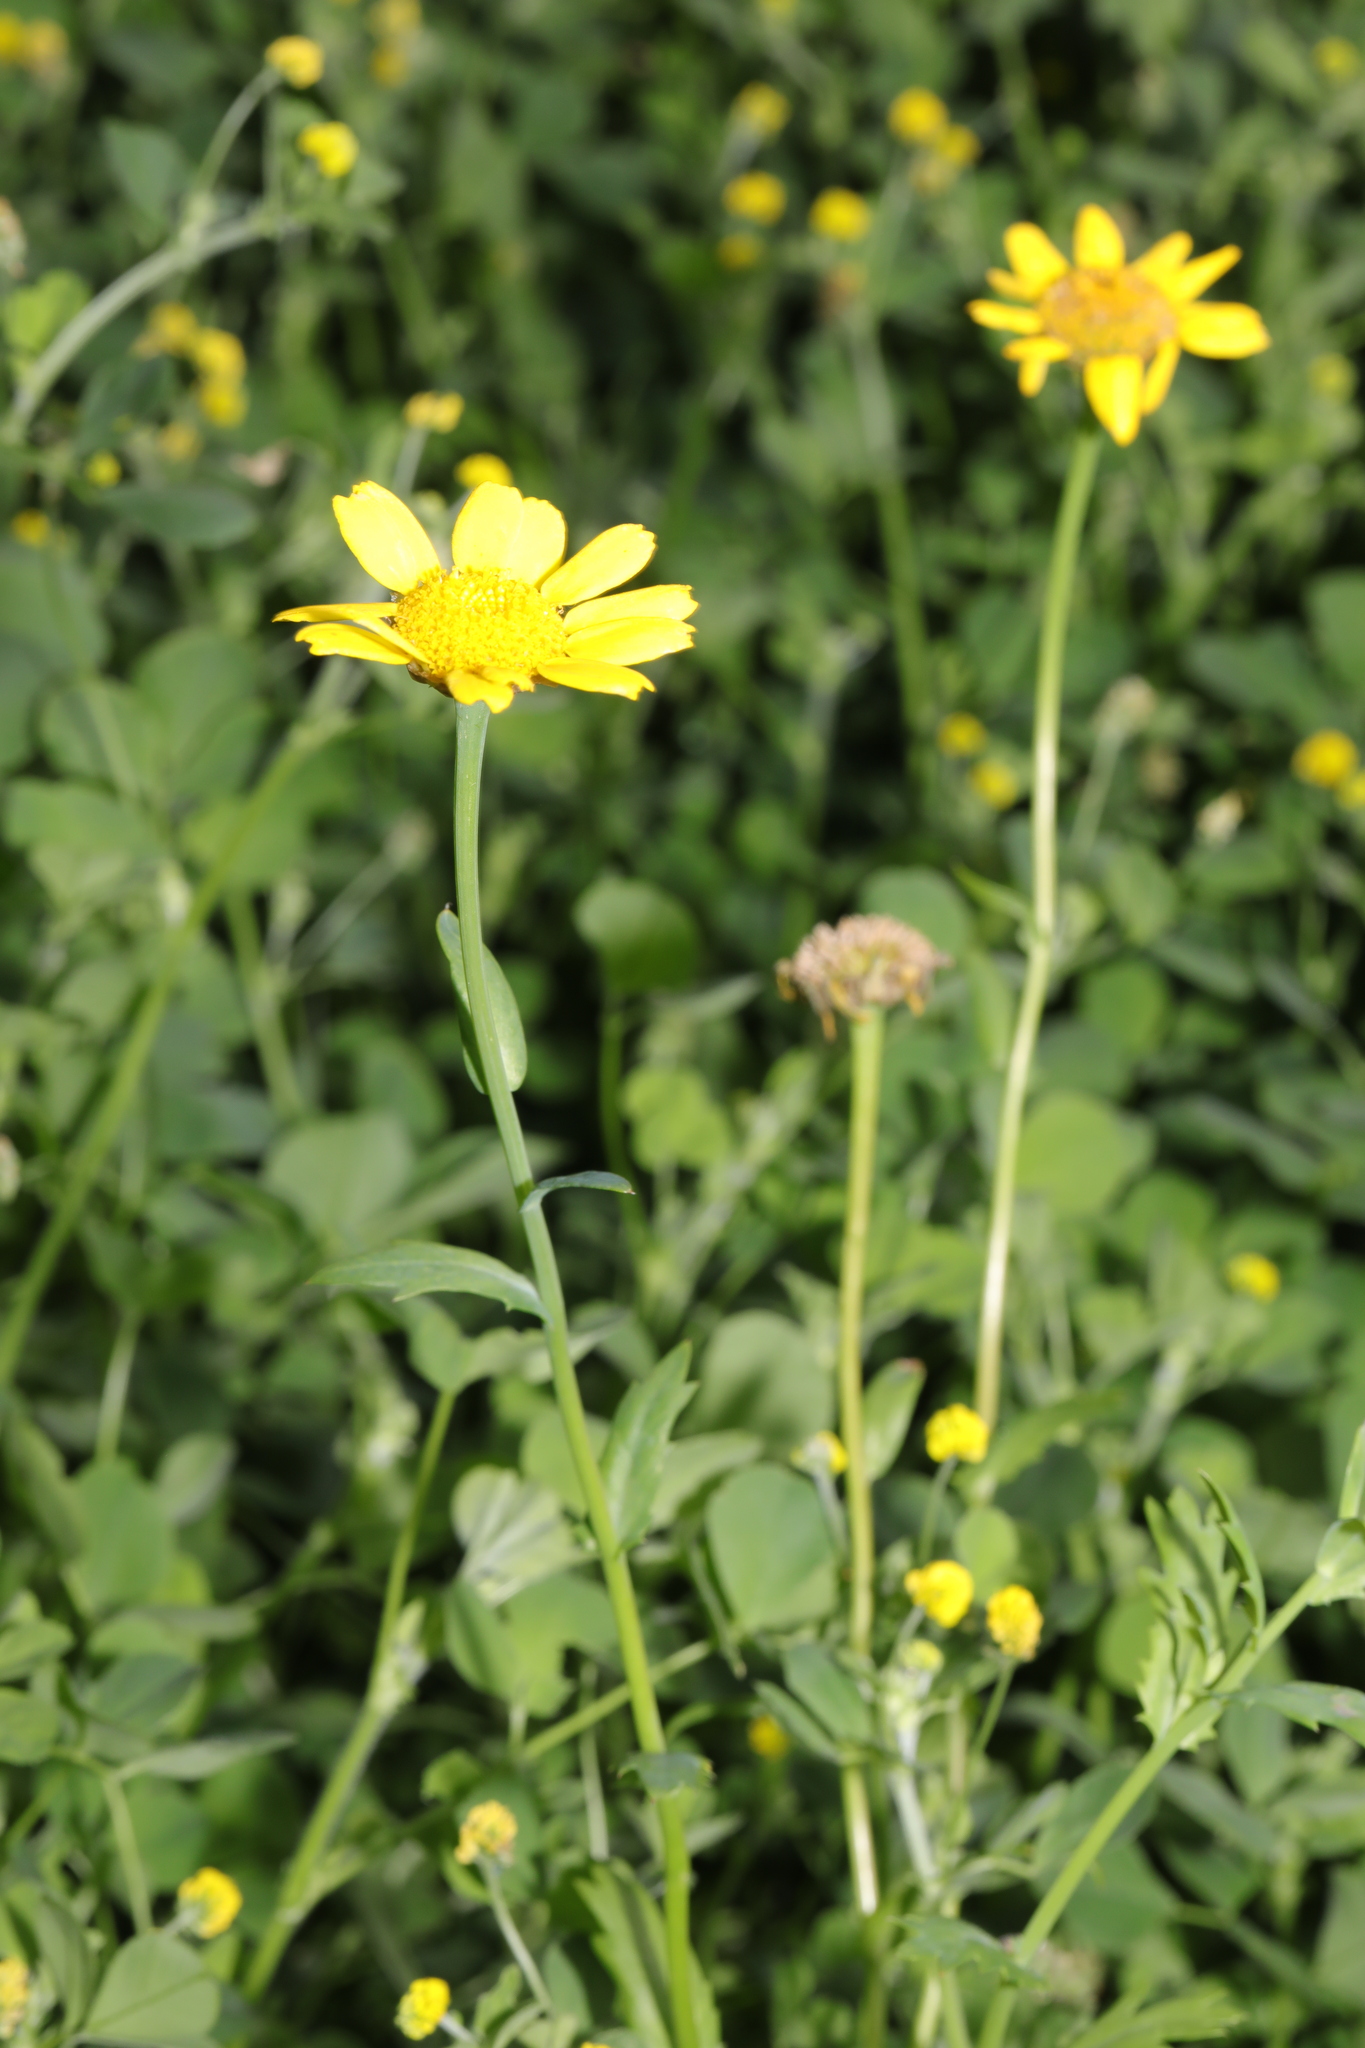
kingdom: Plantae
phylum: Tracheophyta
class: Magnoliopsida
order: Asterales
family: Asteraceae
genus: Glebionis
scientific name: Glebionis segetum
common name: Corndaisy
